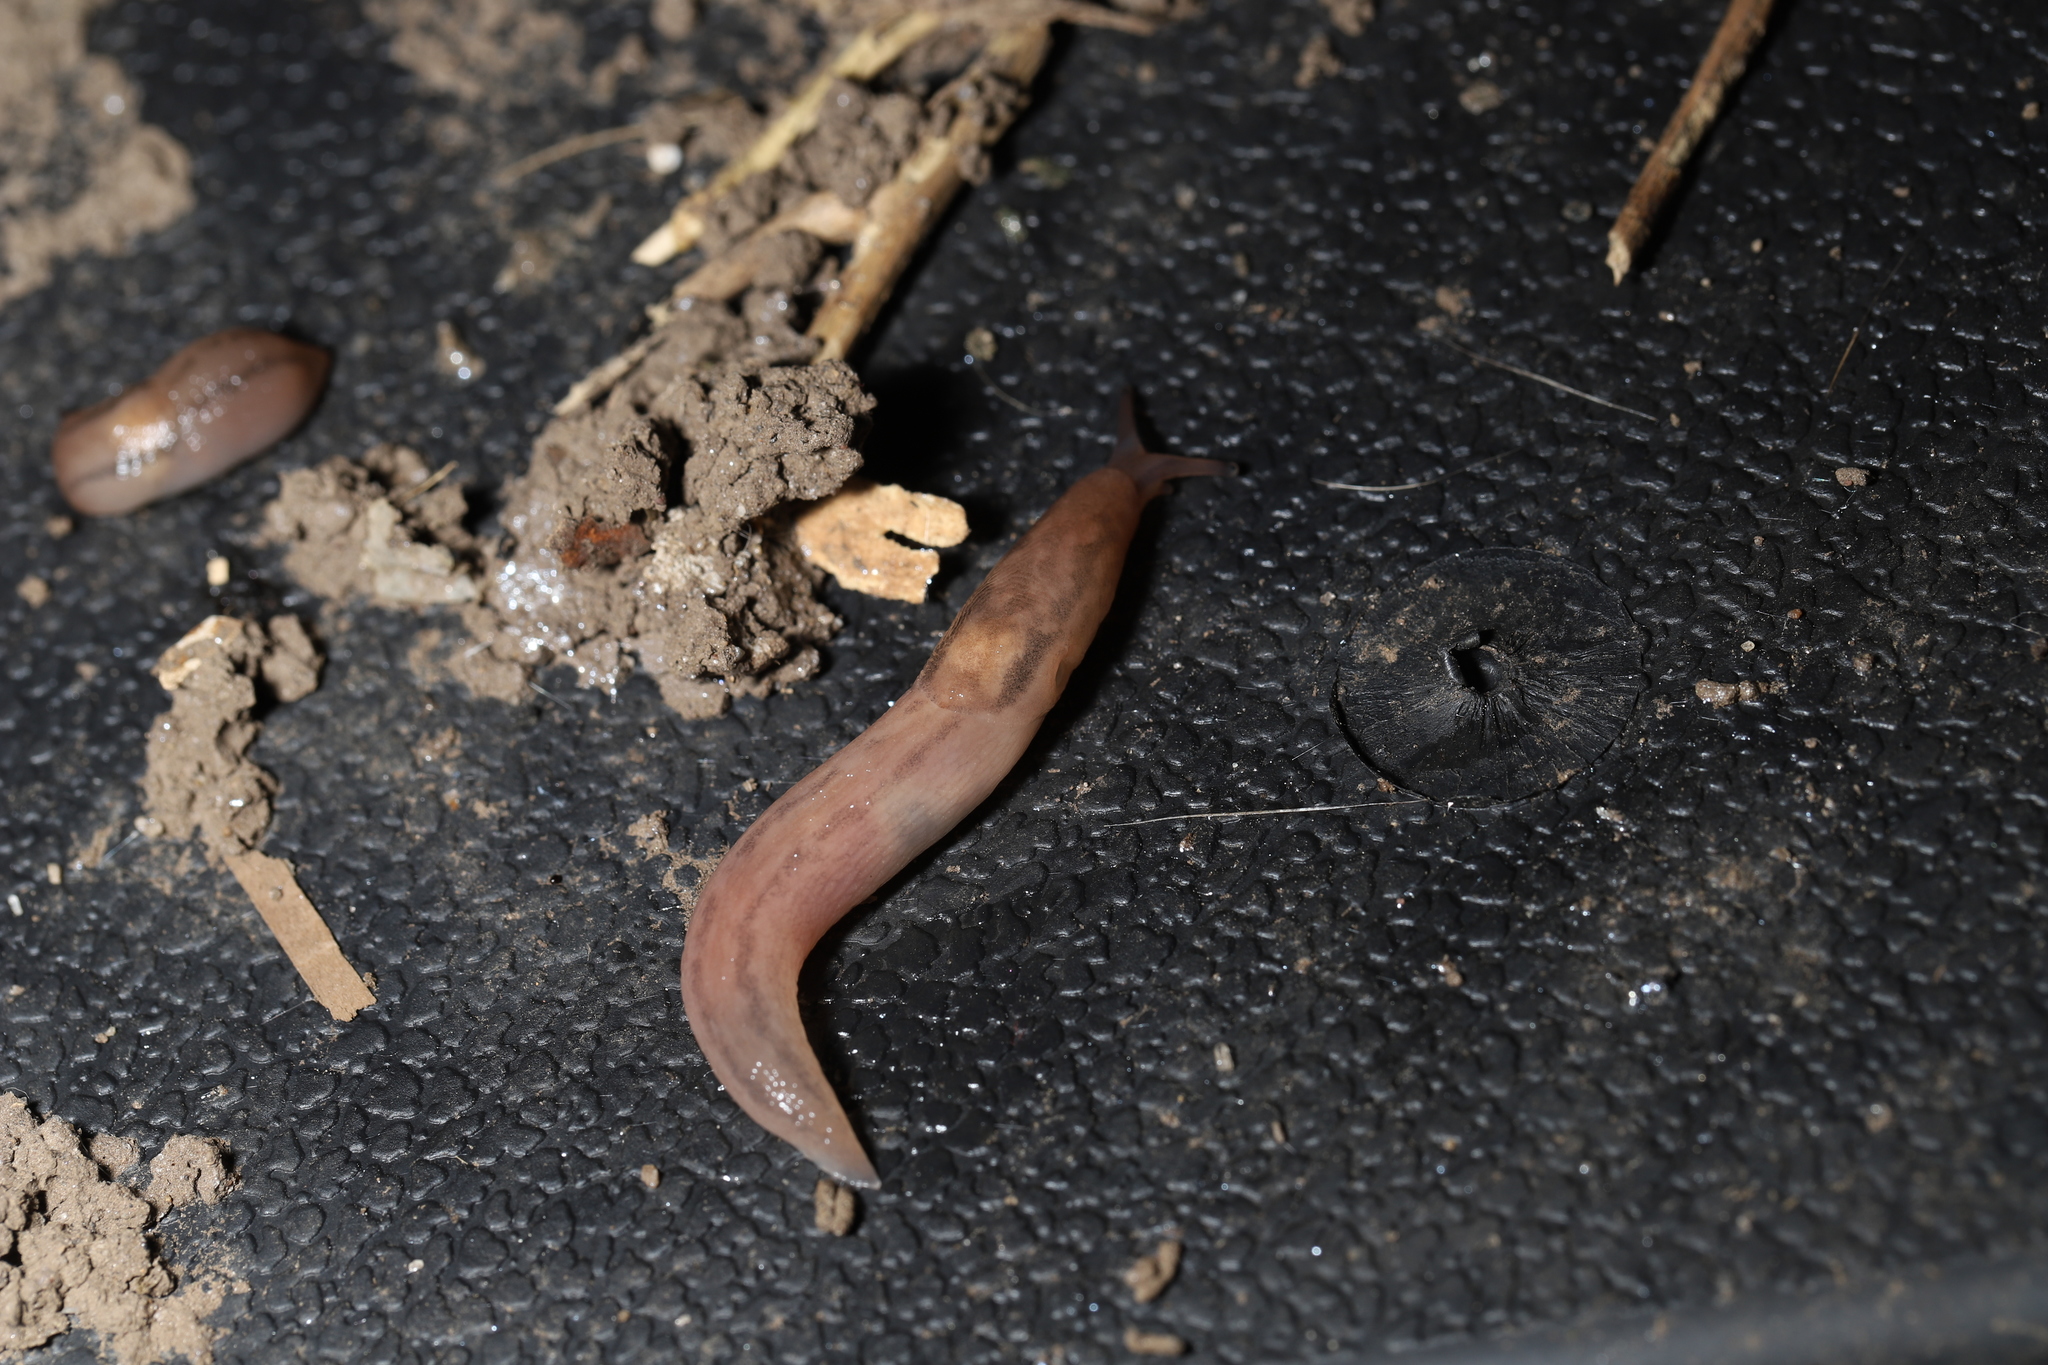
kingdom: Animalia
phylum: Mollusca
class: Gastropoda
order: Stylommatophora
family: Limacidae
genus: Ambigolimax
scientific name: Ambigolimax valentianus
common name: Greenhouse slug
